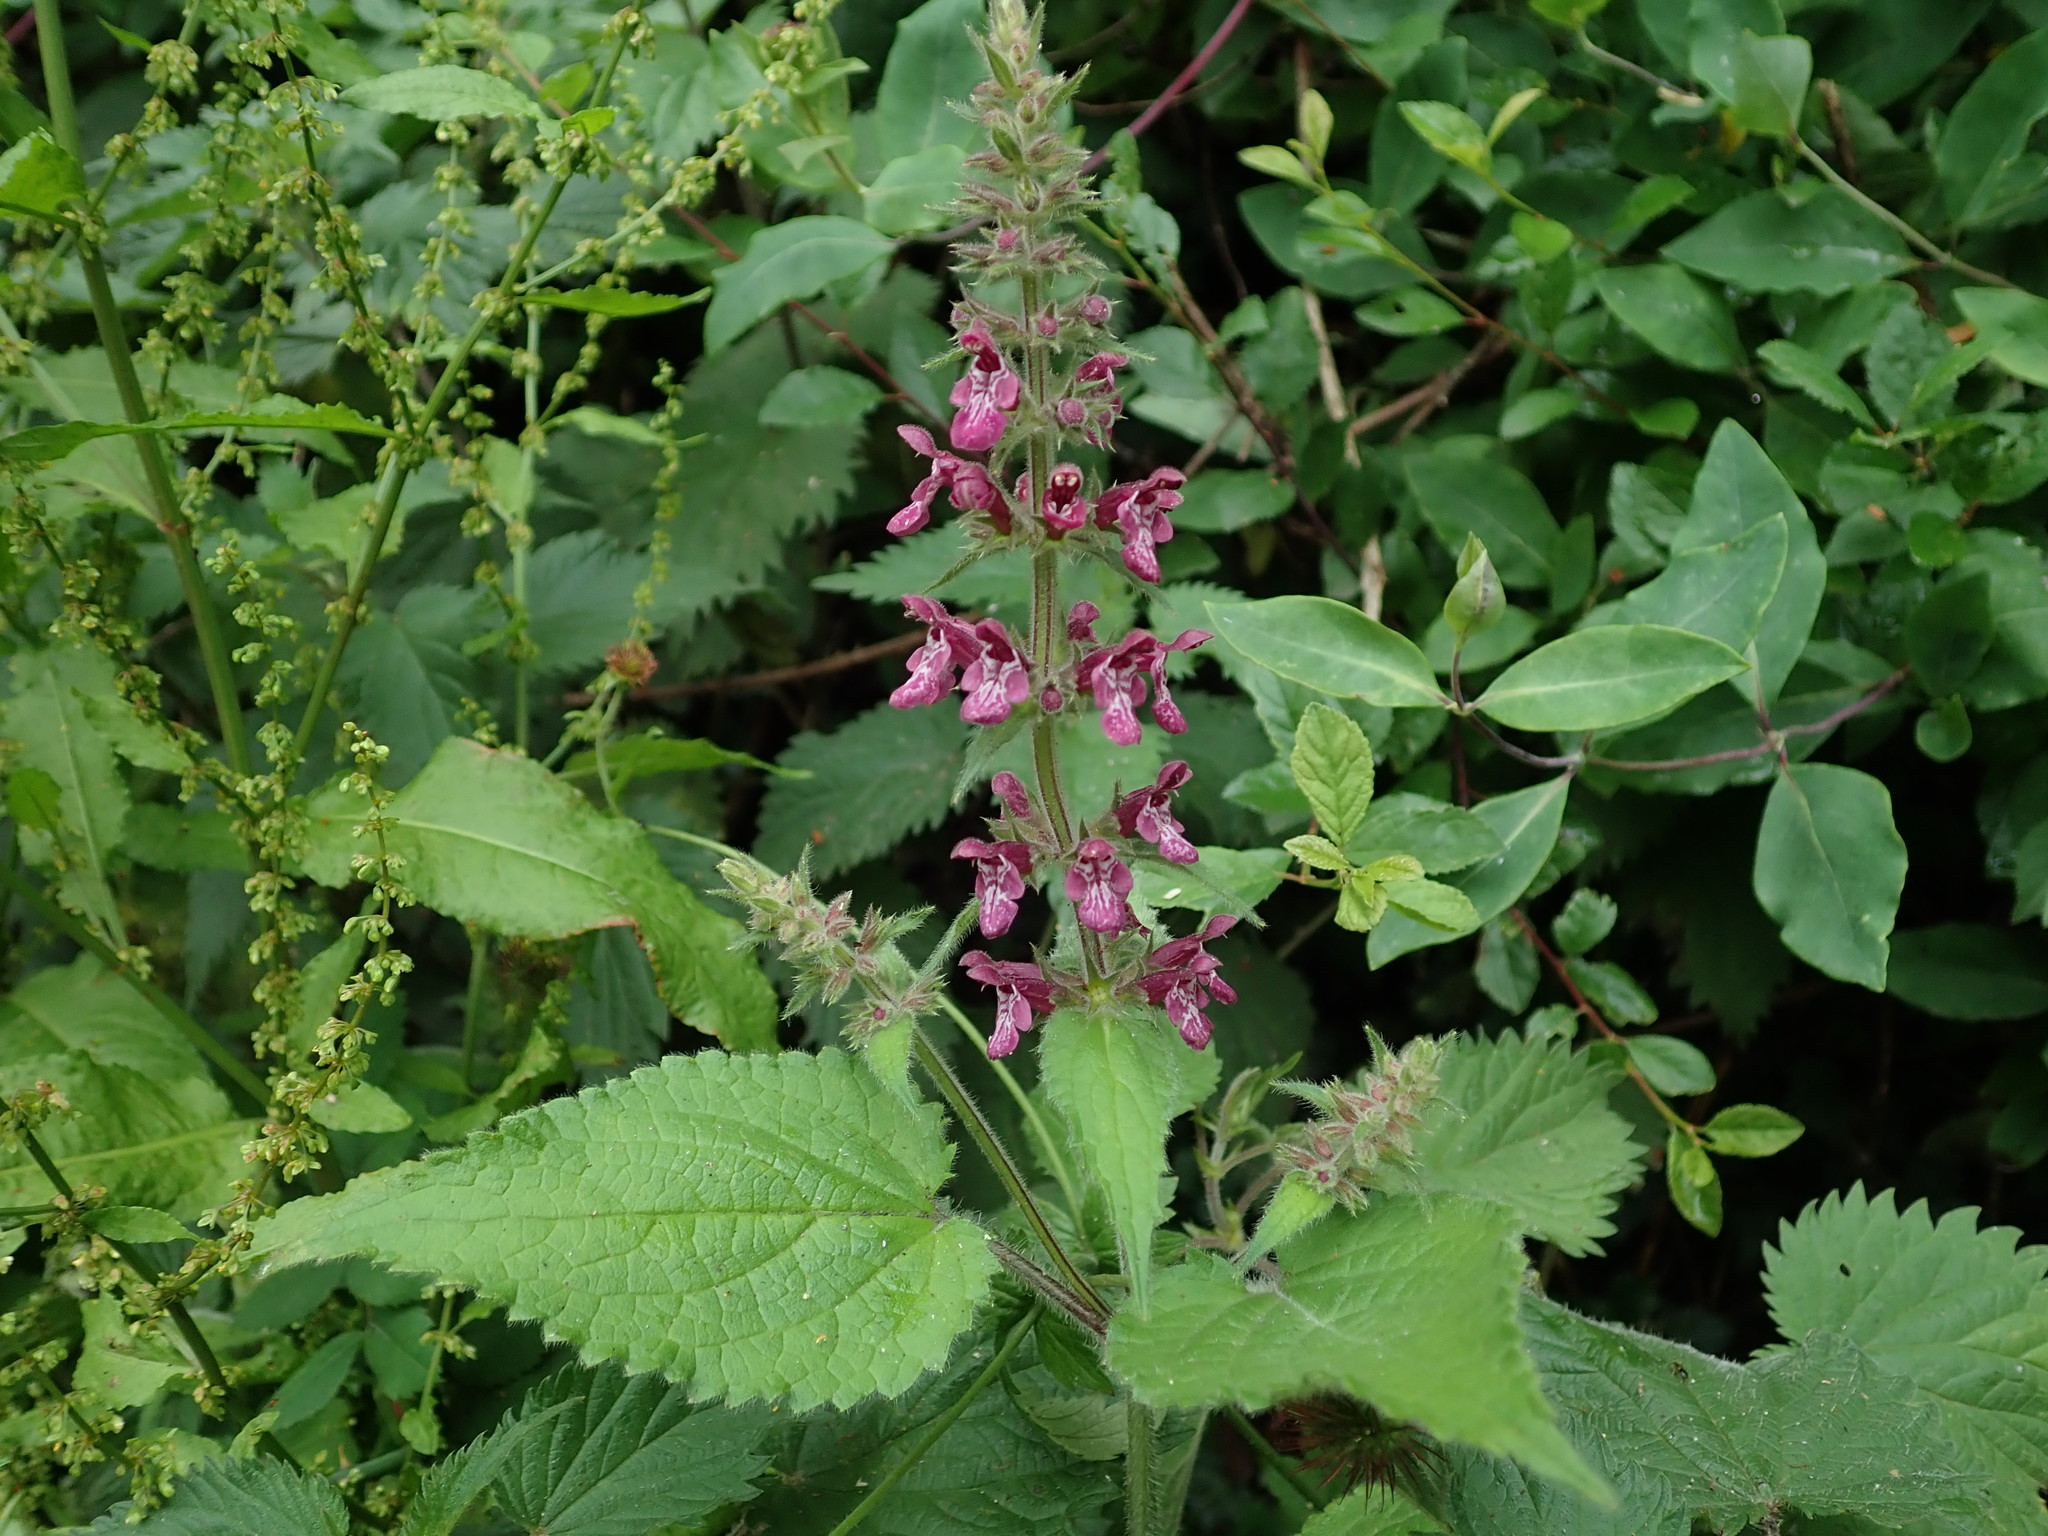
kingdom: Plantae
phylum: Tracheophyta
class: Magnoliopsida
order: Lamiales
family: Lamiaceae
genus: Stachys
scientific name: Stachys sylvatica
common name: Hedge woundwort
